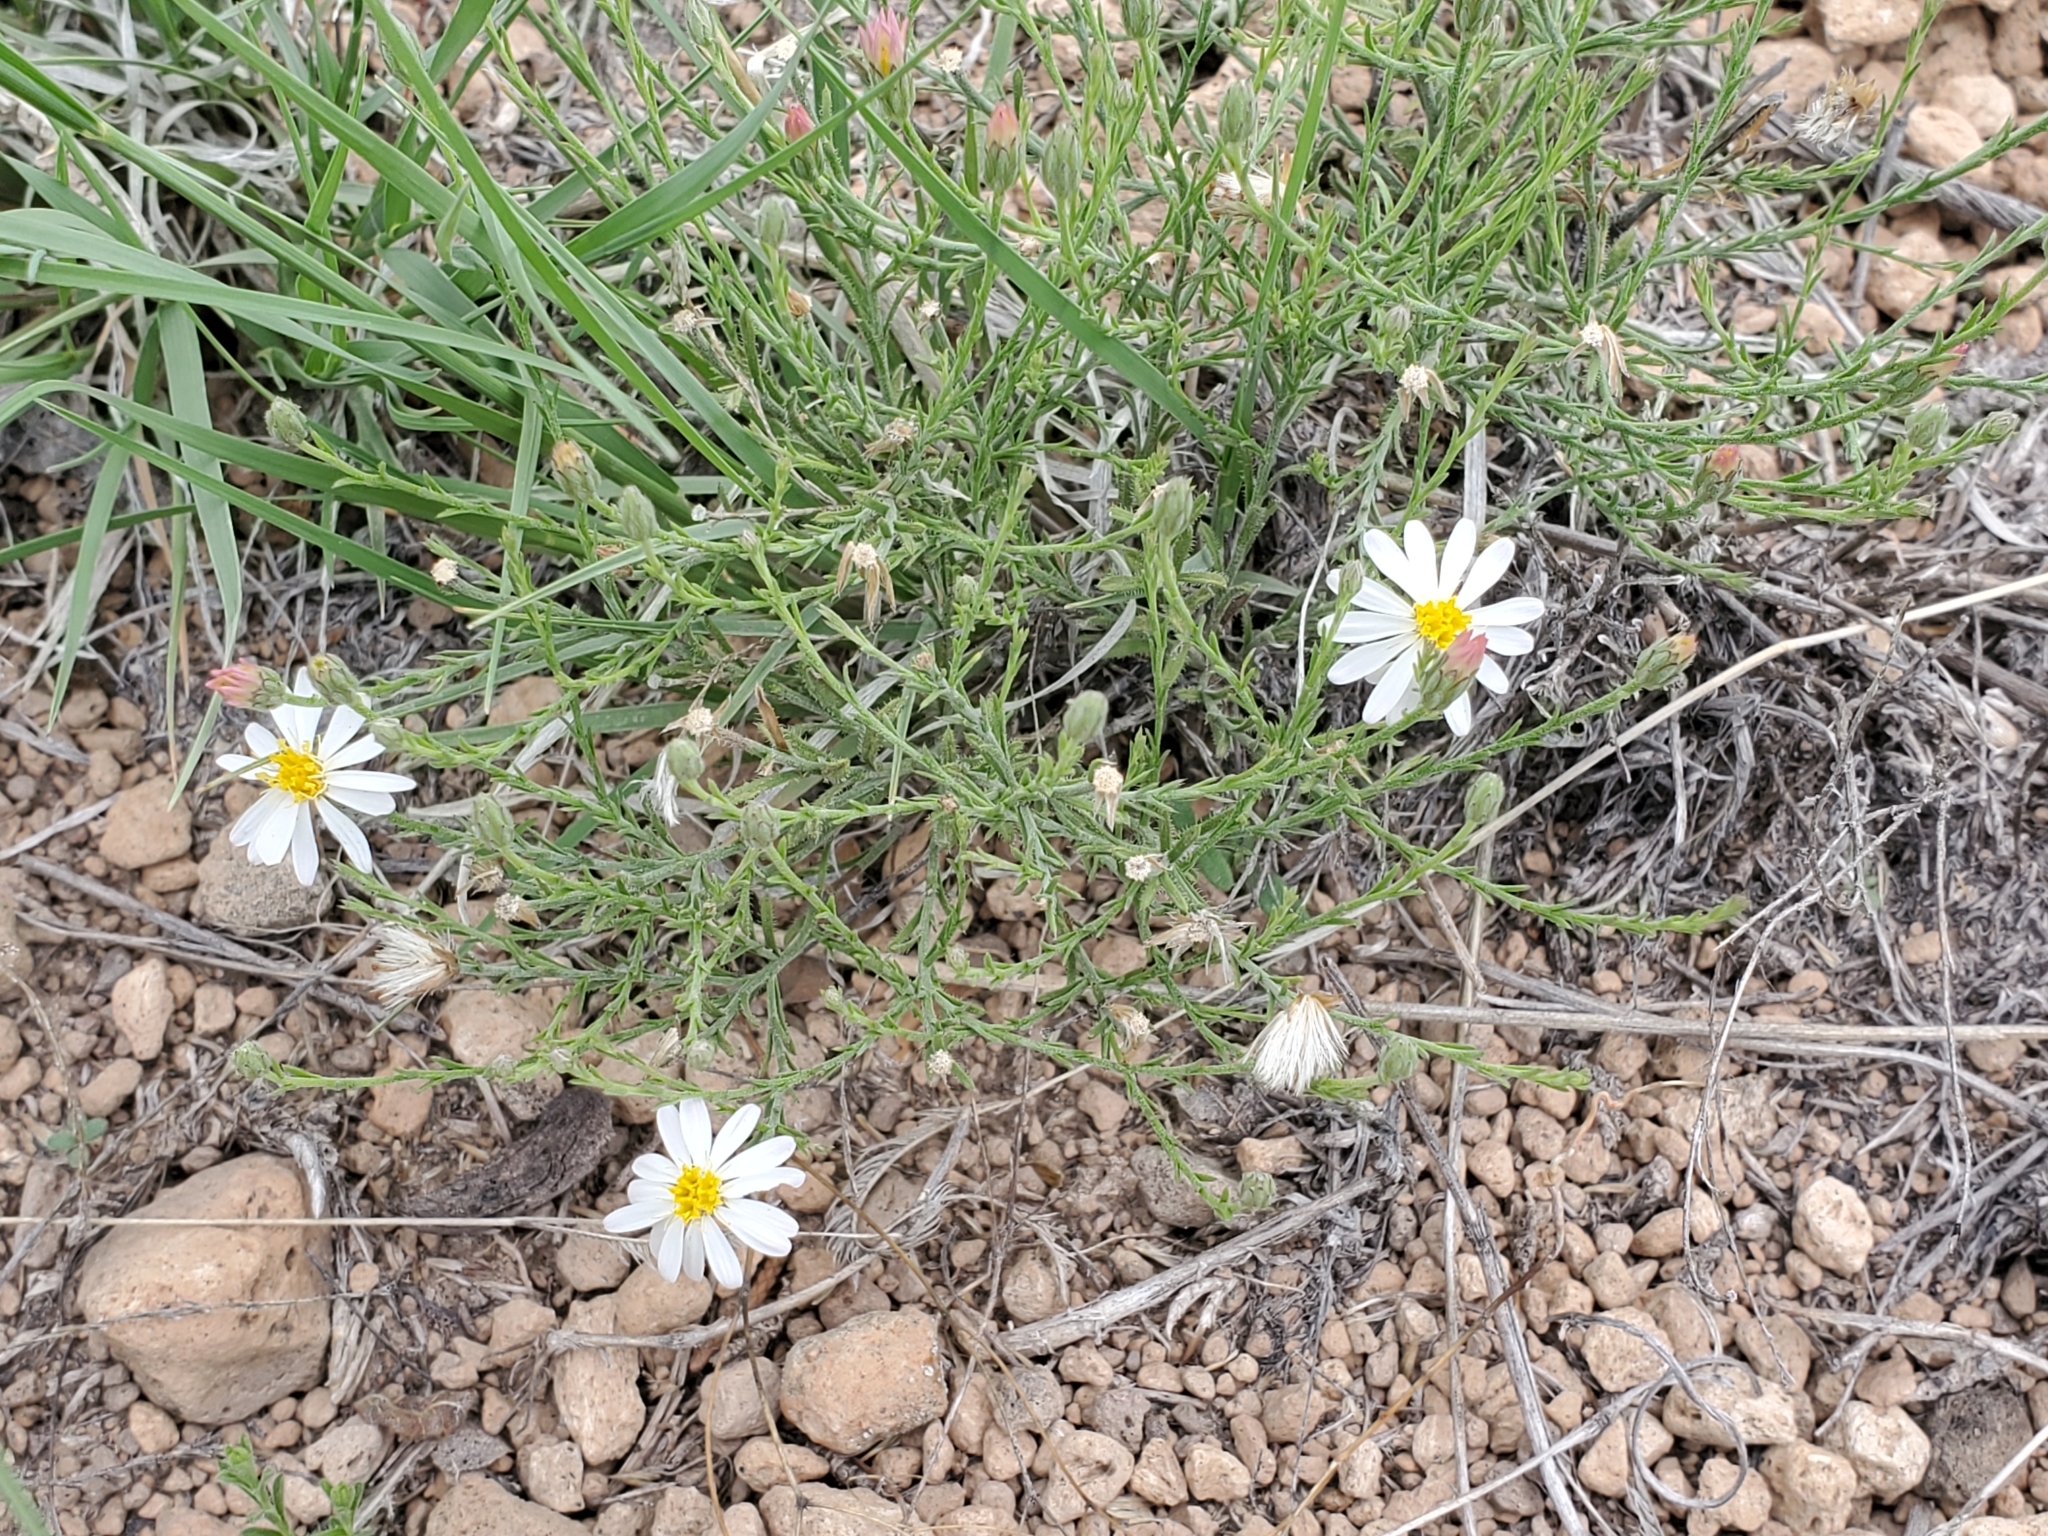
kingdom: Plantae
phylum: Tracheophyta
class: Magnoliopsida
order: Asterales
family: Asteraceae
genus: Chaetopappa
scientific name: Chaetopappa ericoides
